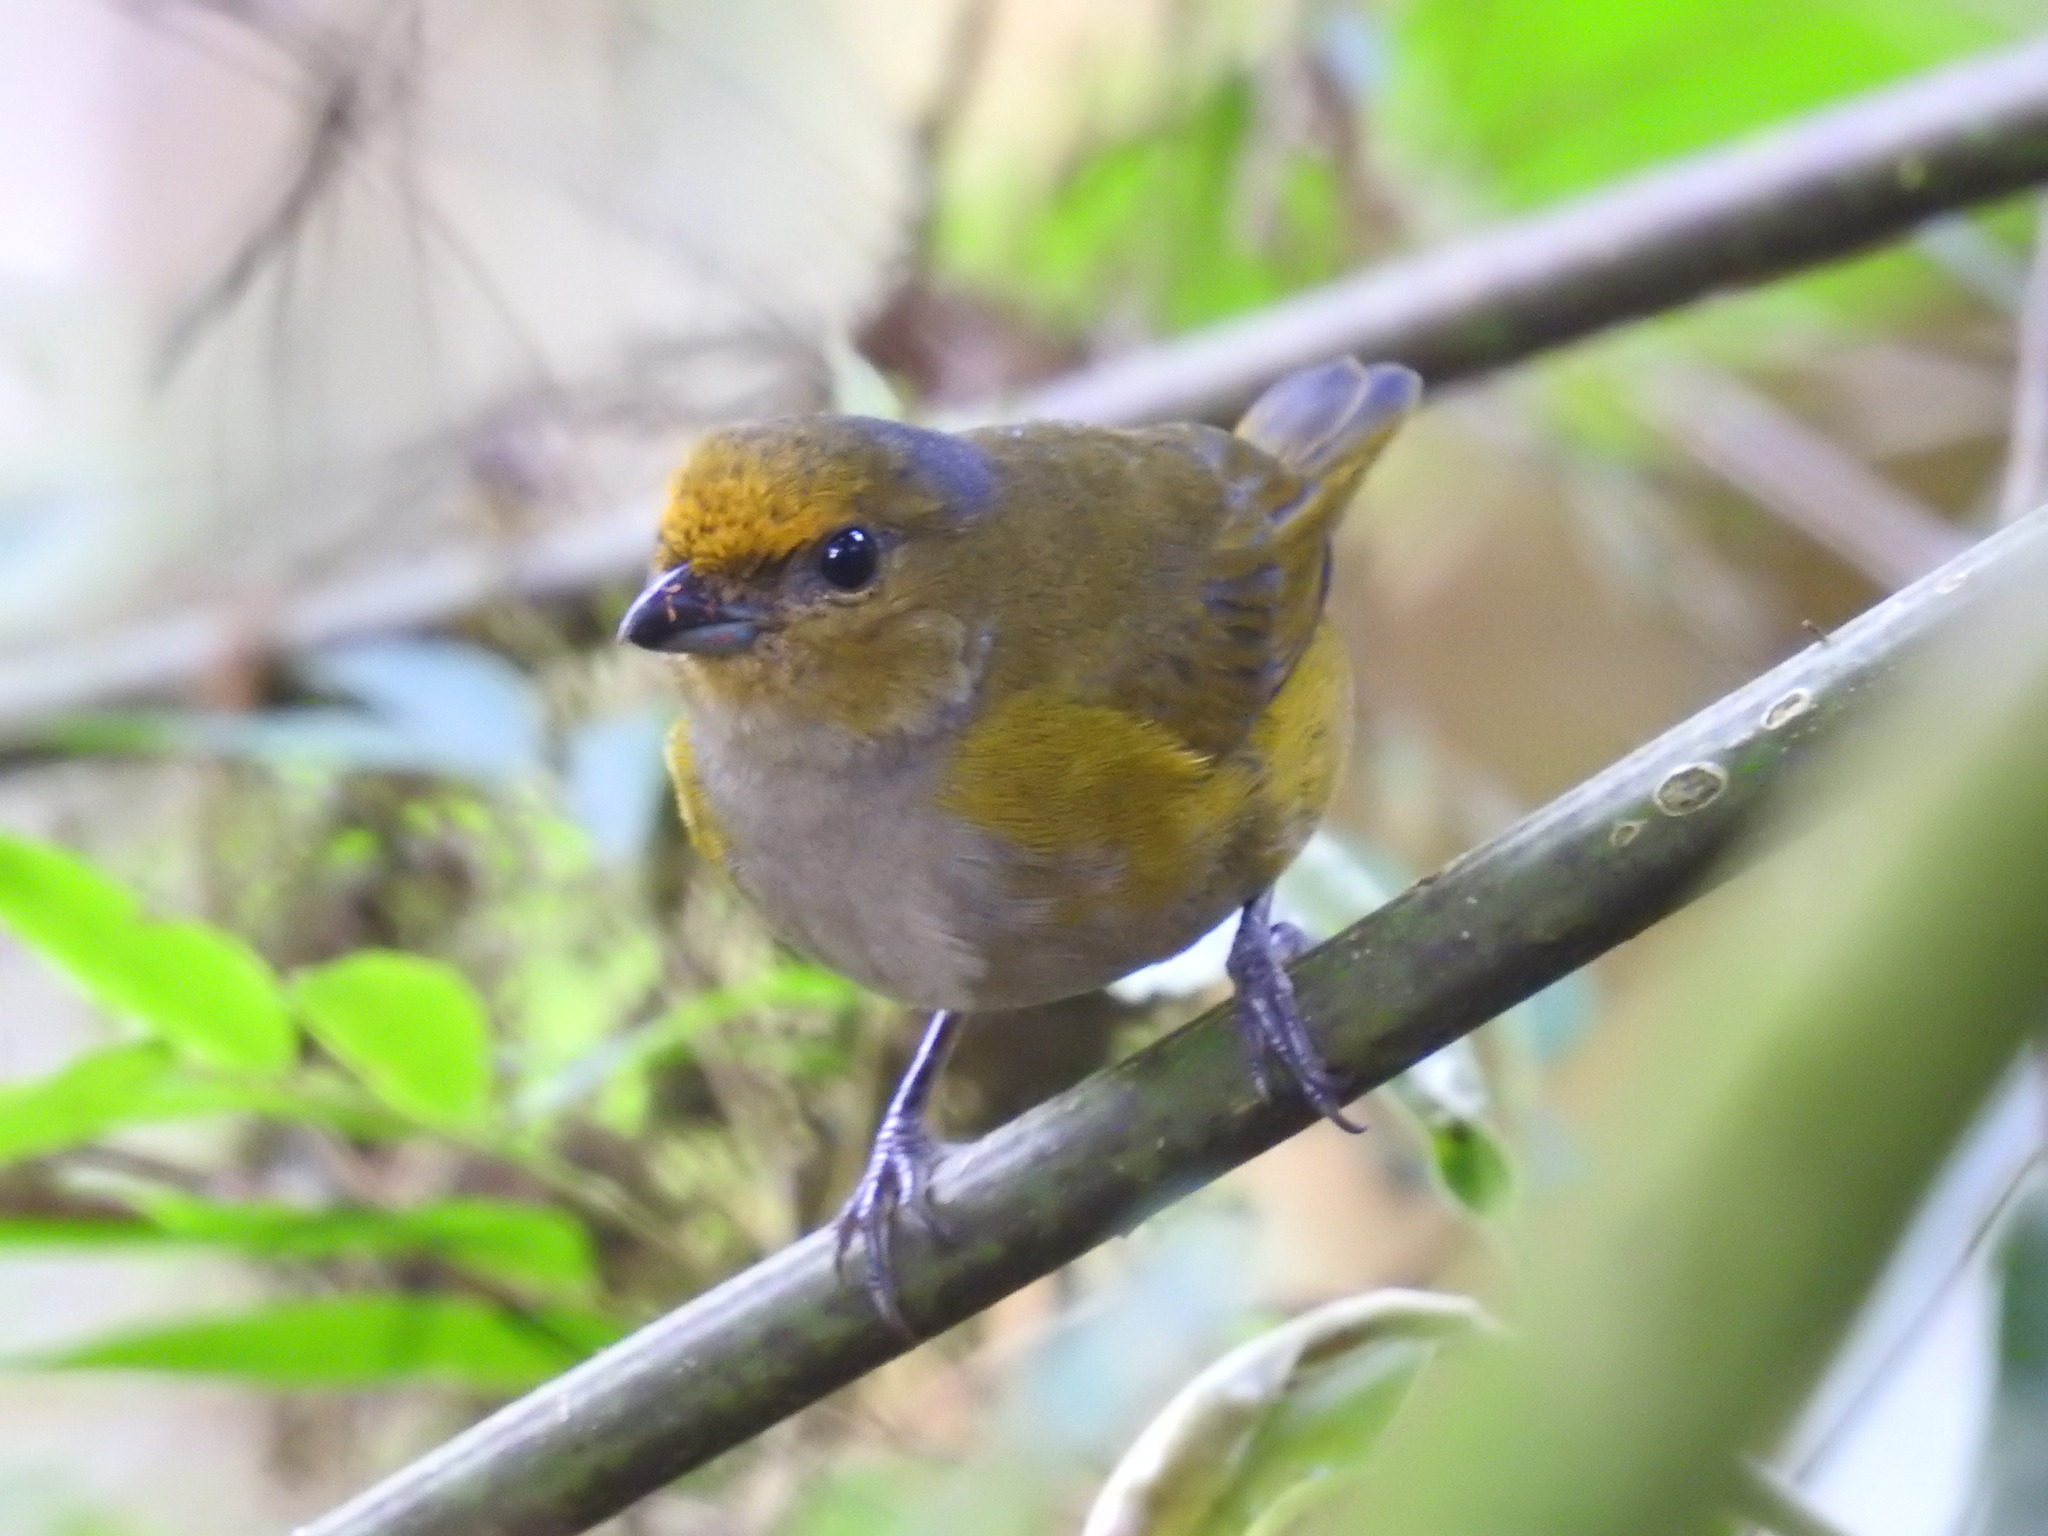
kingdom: Animalia
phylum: Chordata
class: Aves
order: Passeriformes
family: Fringillidae
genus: Euphonia
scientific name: Euphonia mesochrysa
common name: Bronze-green euphonia
